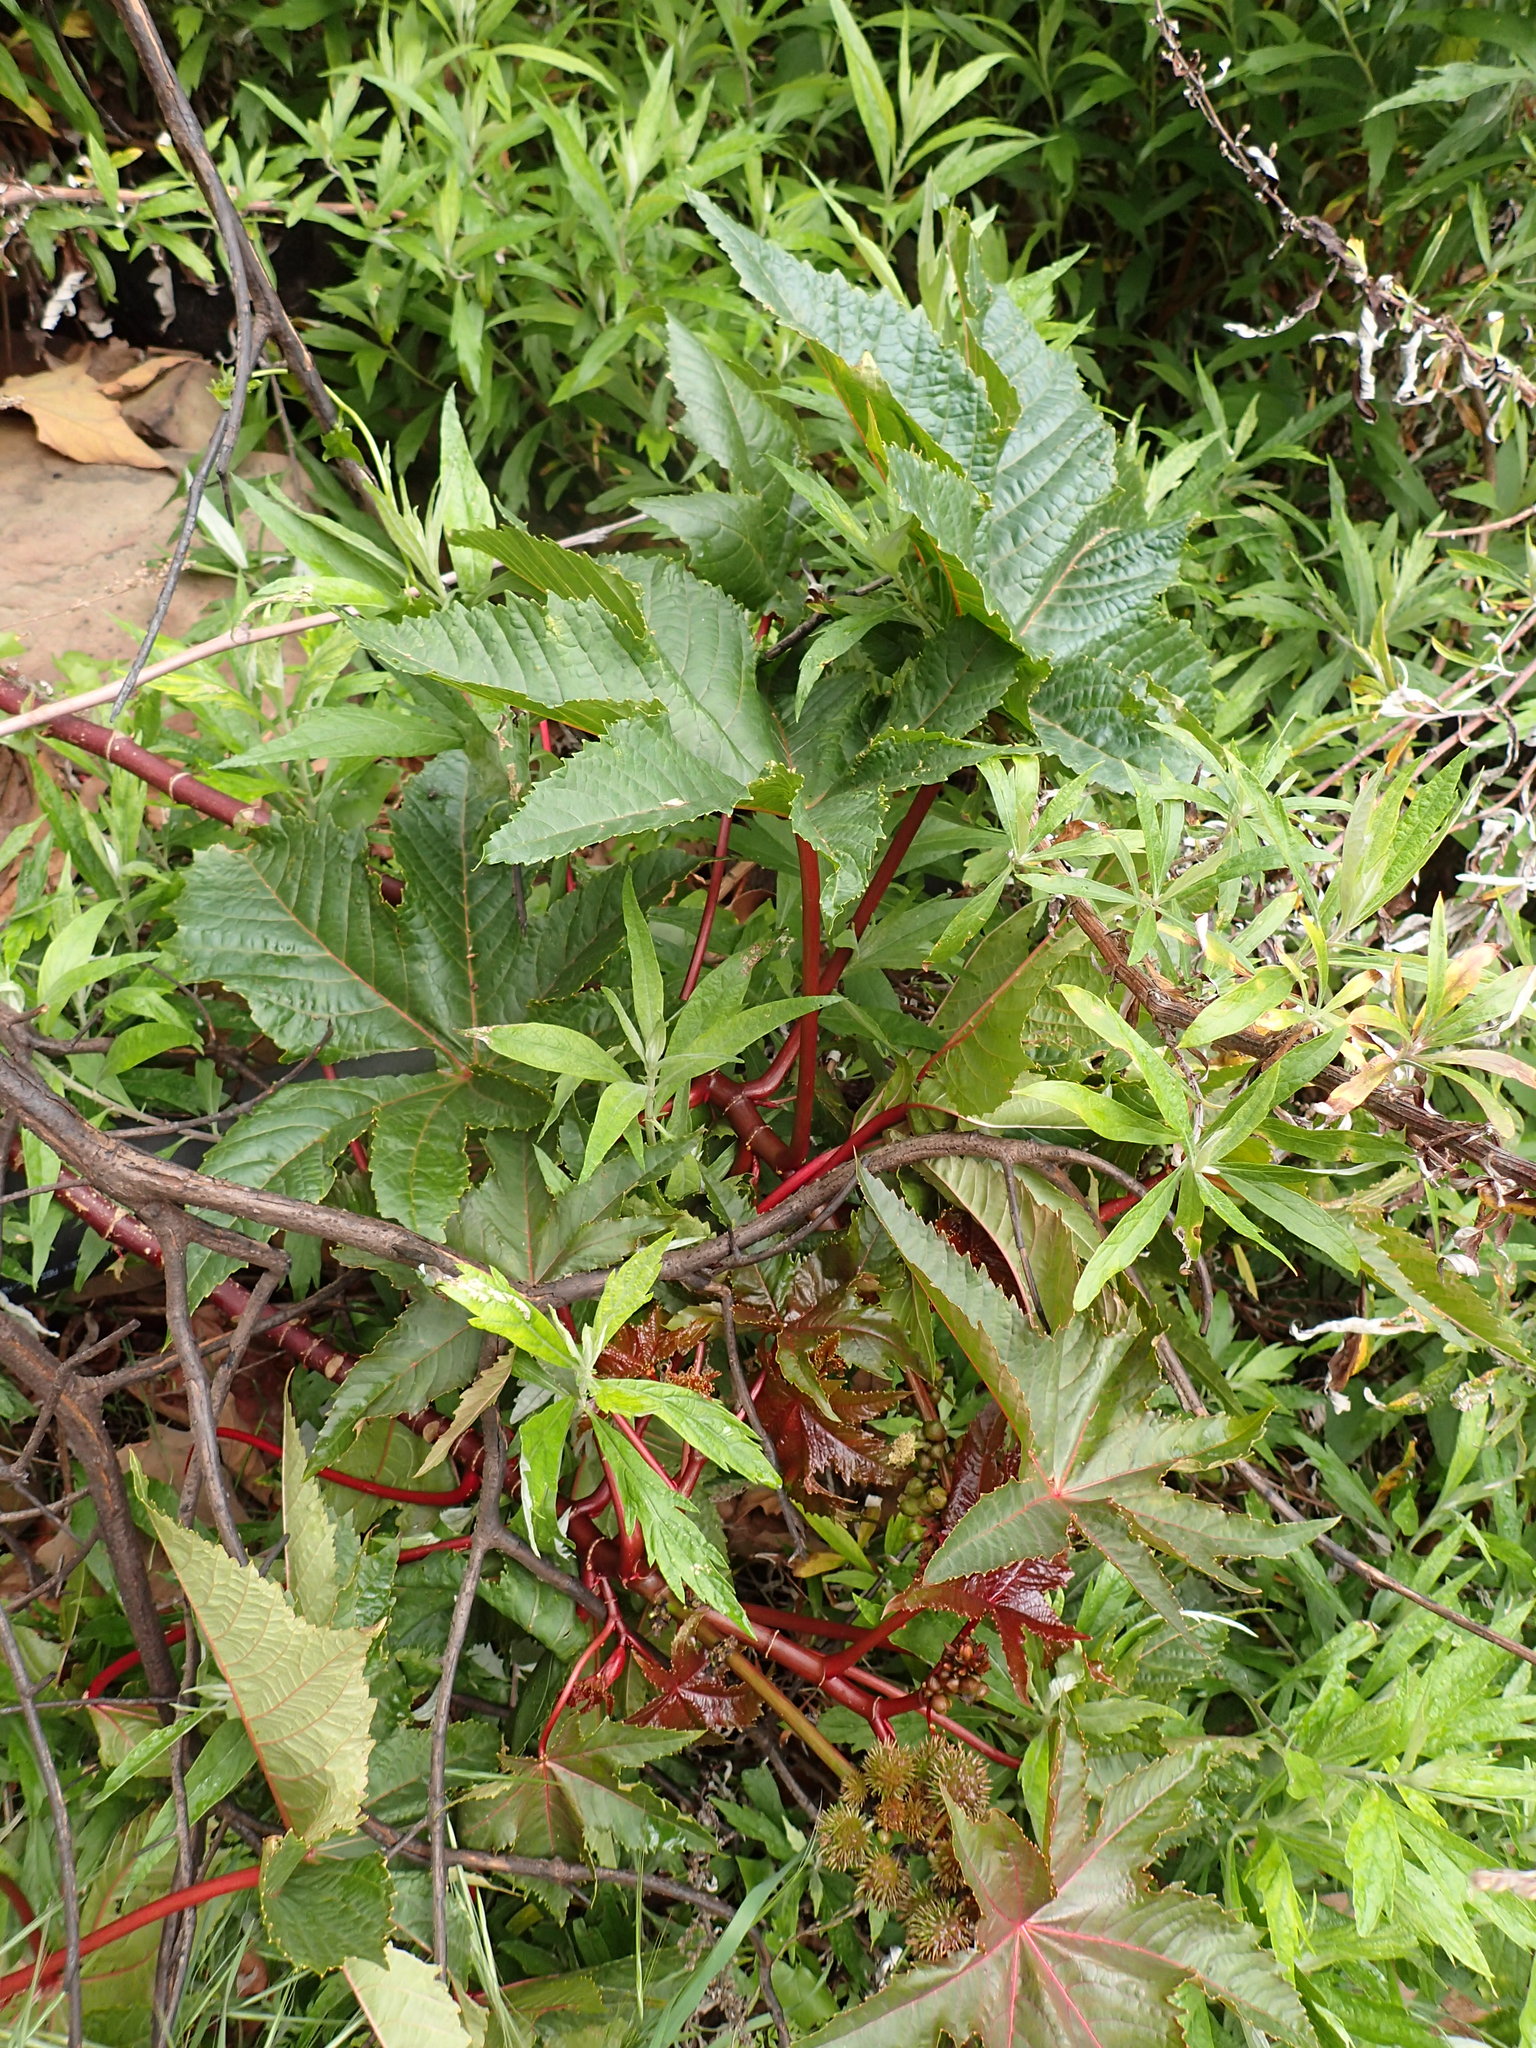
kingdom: Plantae
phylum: Tracheophyta
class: Magnoliopsida
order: Malpighiales
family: Euphorbiaceae
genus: Ricinus
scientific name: Ricinus communis
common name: Castor-oil-plant
